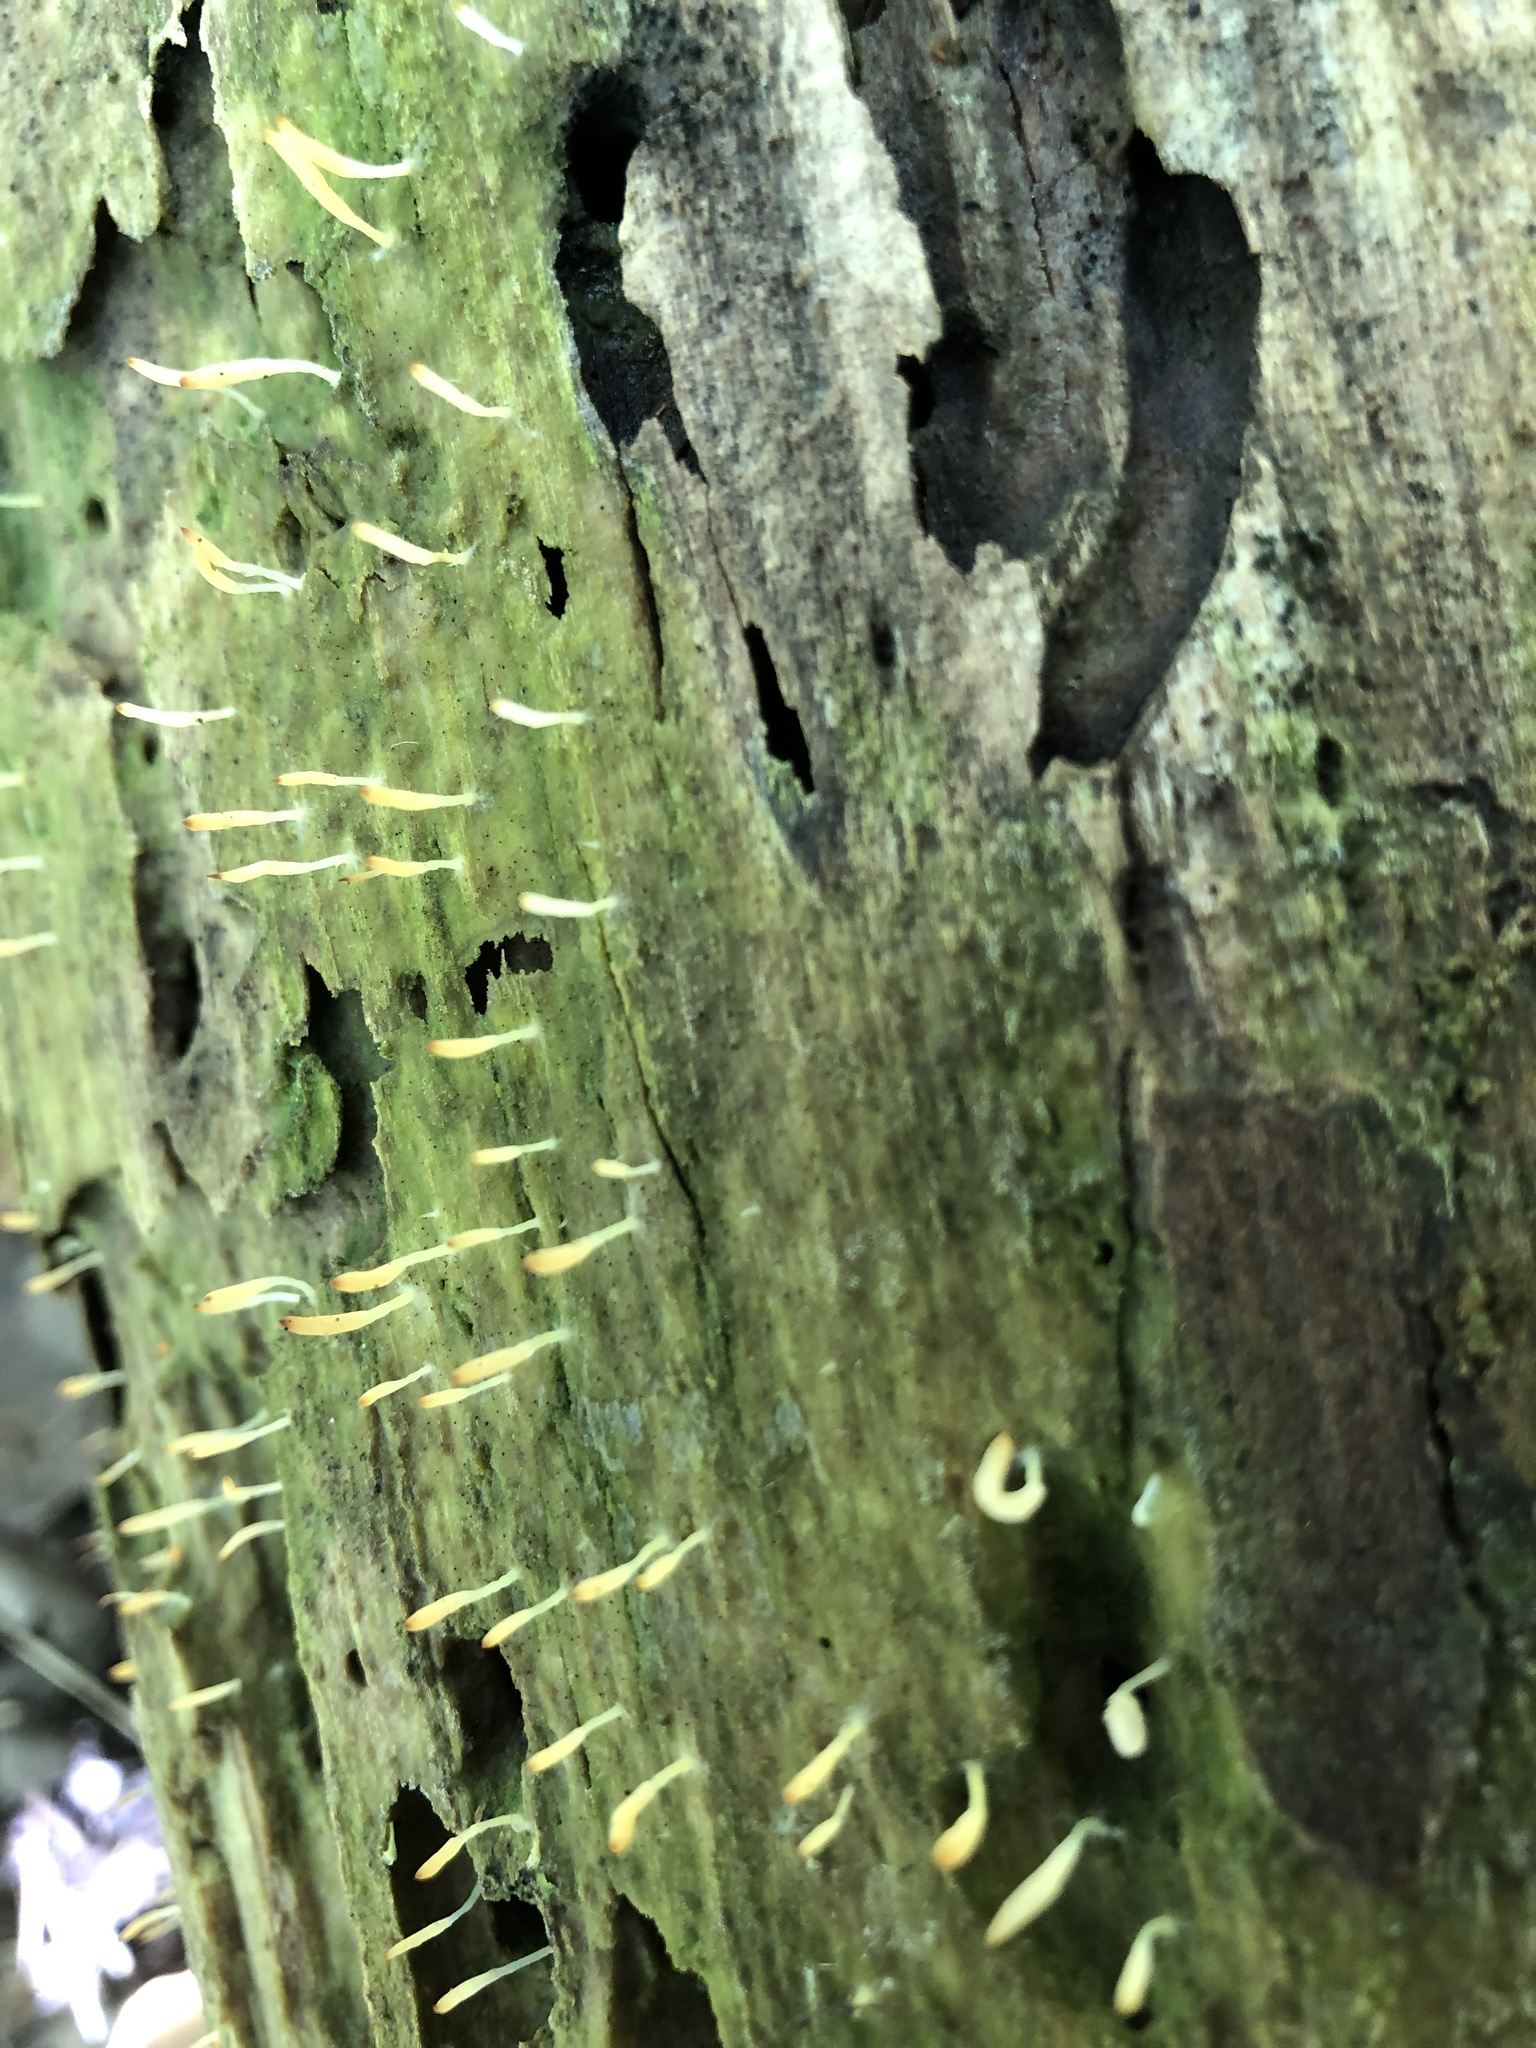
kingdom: Fungi
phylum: Basidiomycota
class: Agaricomycetes
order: Cantharellales
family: Hydnaceae
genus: Multiclavula
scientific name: Multiclavula mucida
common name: White green-algae coral
